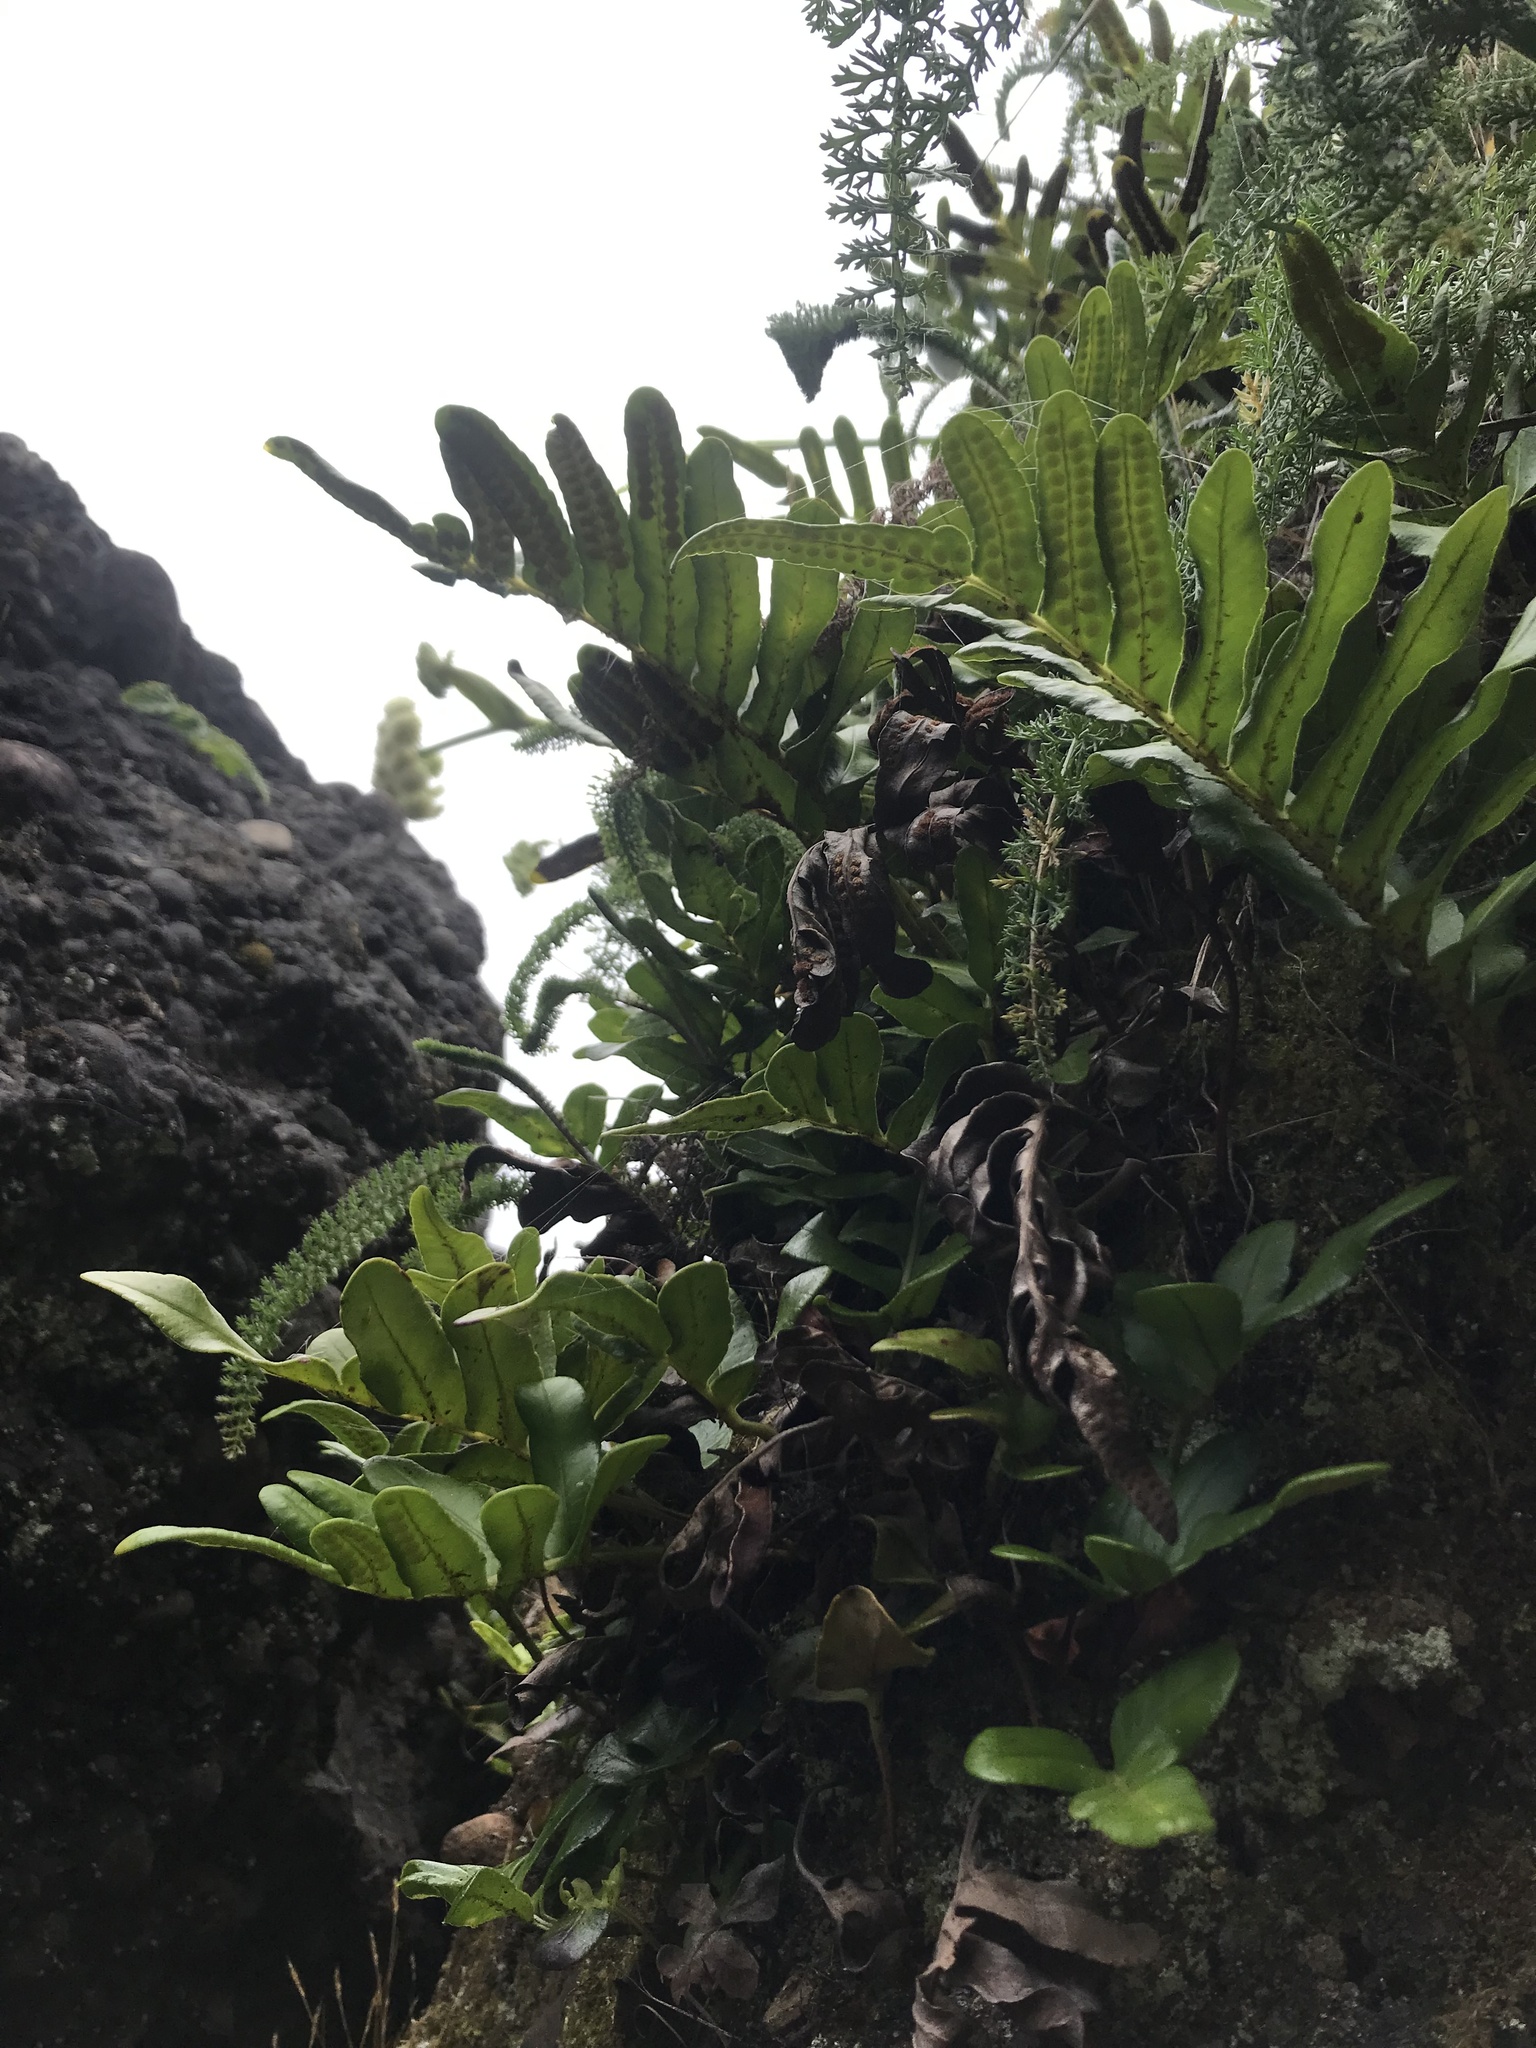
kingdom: Plantae
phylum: Tracheophyta
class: Polypodiopsida
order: Polypodiales
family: Polypodiaceae
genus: Polypodium
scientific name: Polypodium scouleri
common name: Scouler's polypody
